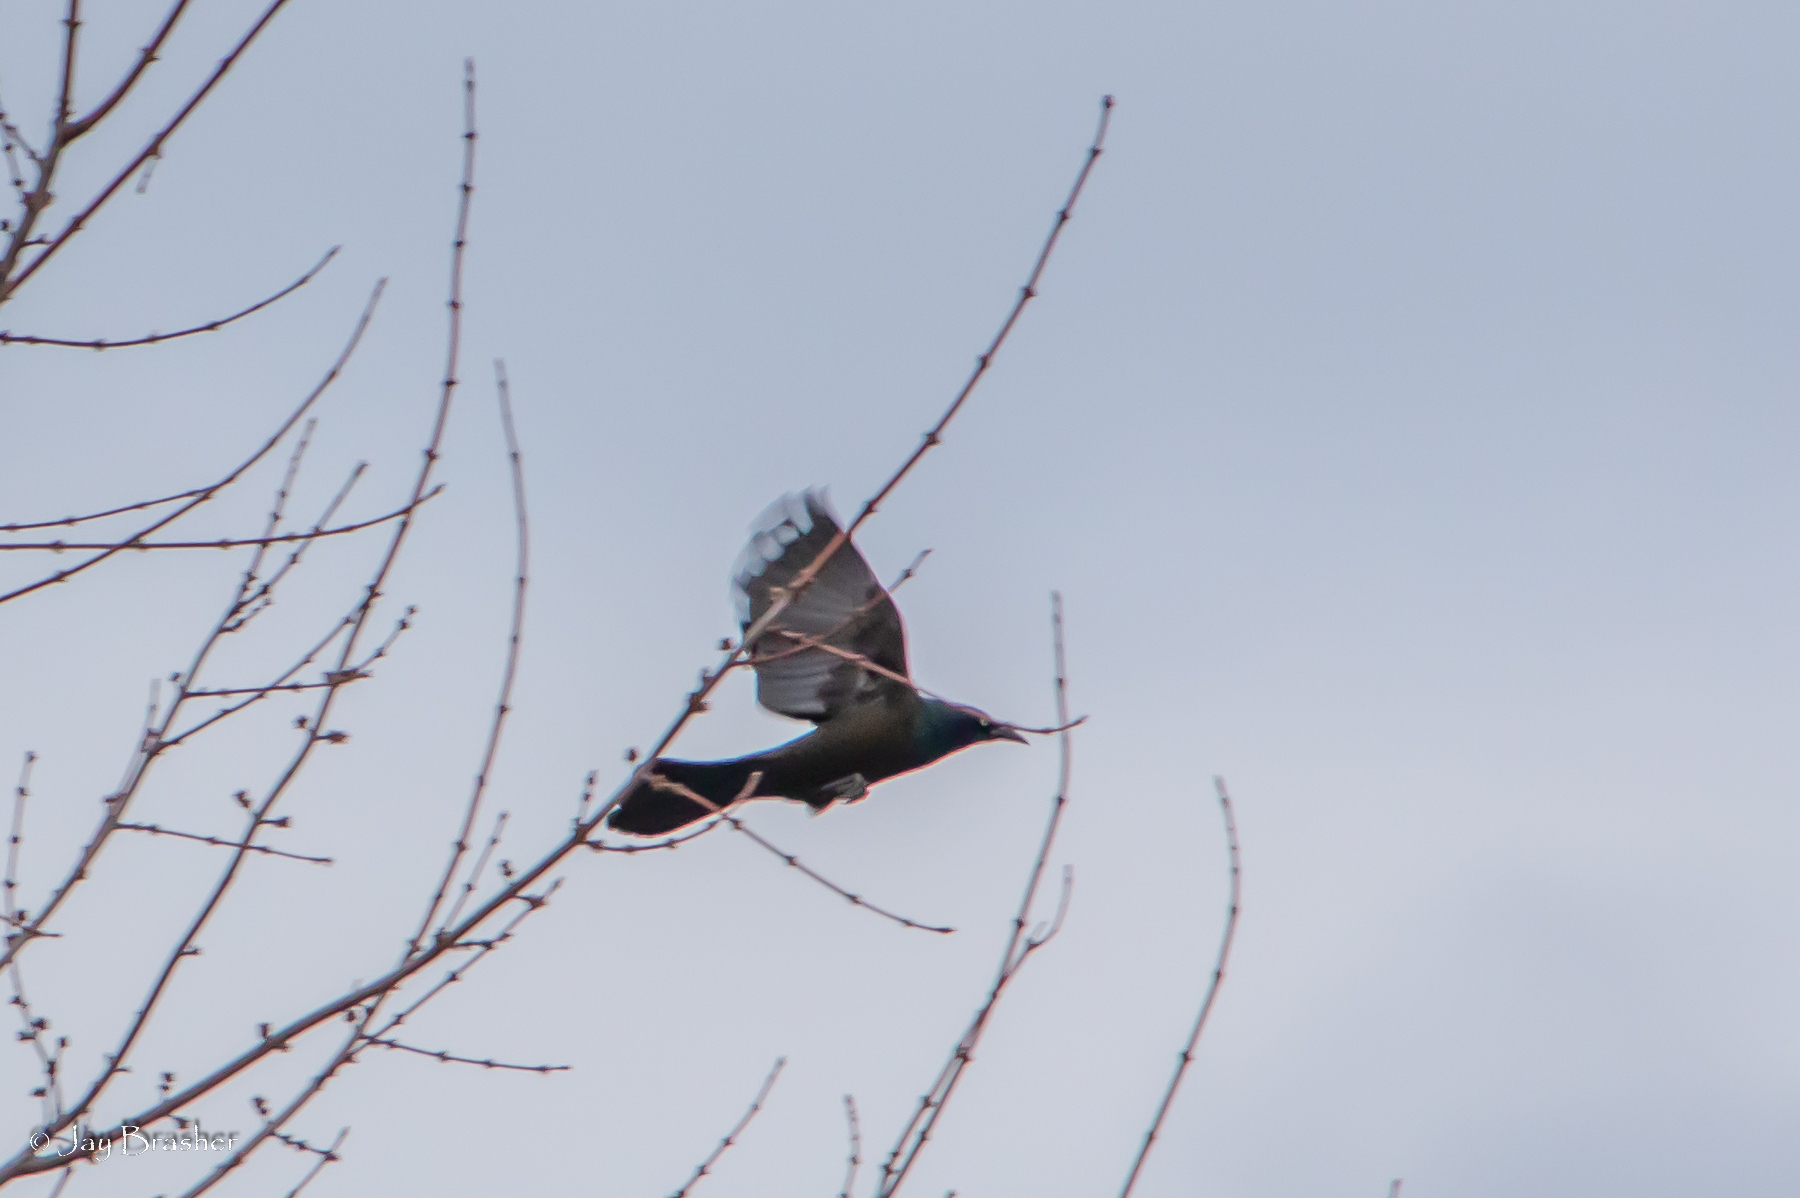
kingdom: Animalia
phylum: Chordata
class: Aves
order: Passeriformes
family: Icteridae
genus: Quiscalus
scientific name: Quiscalus quiscula
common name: Common grackle
